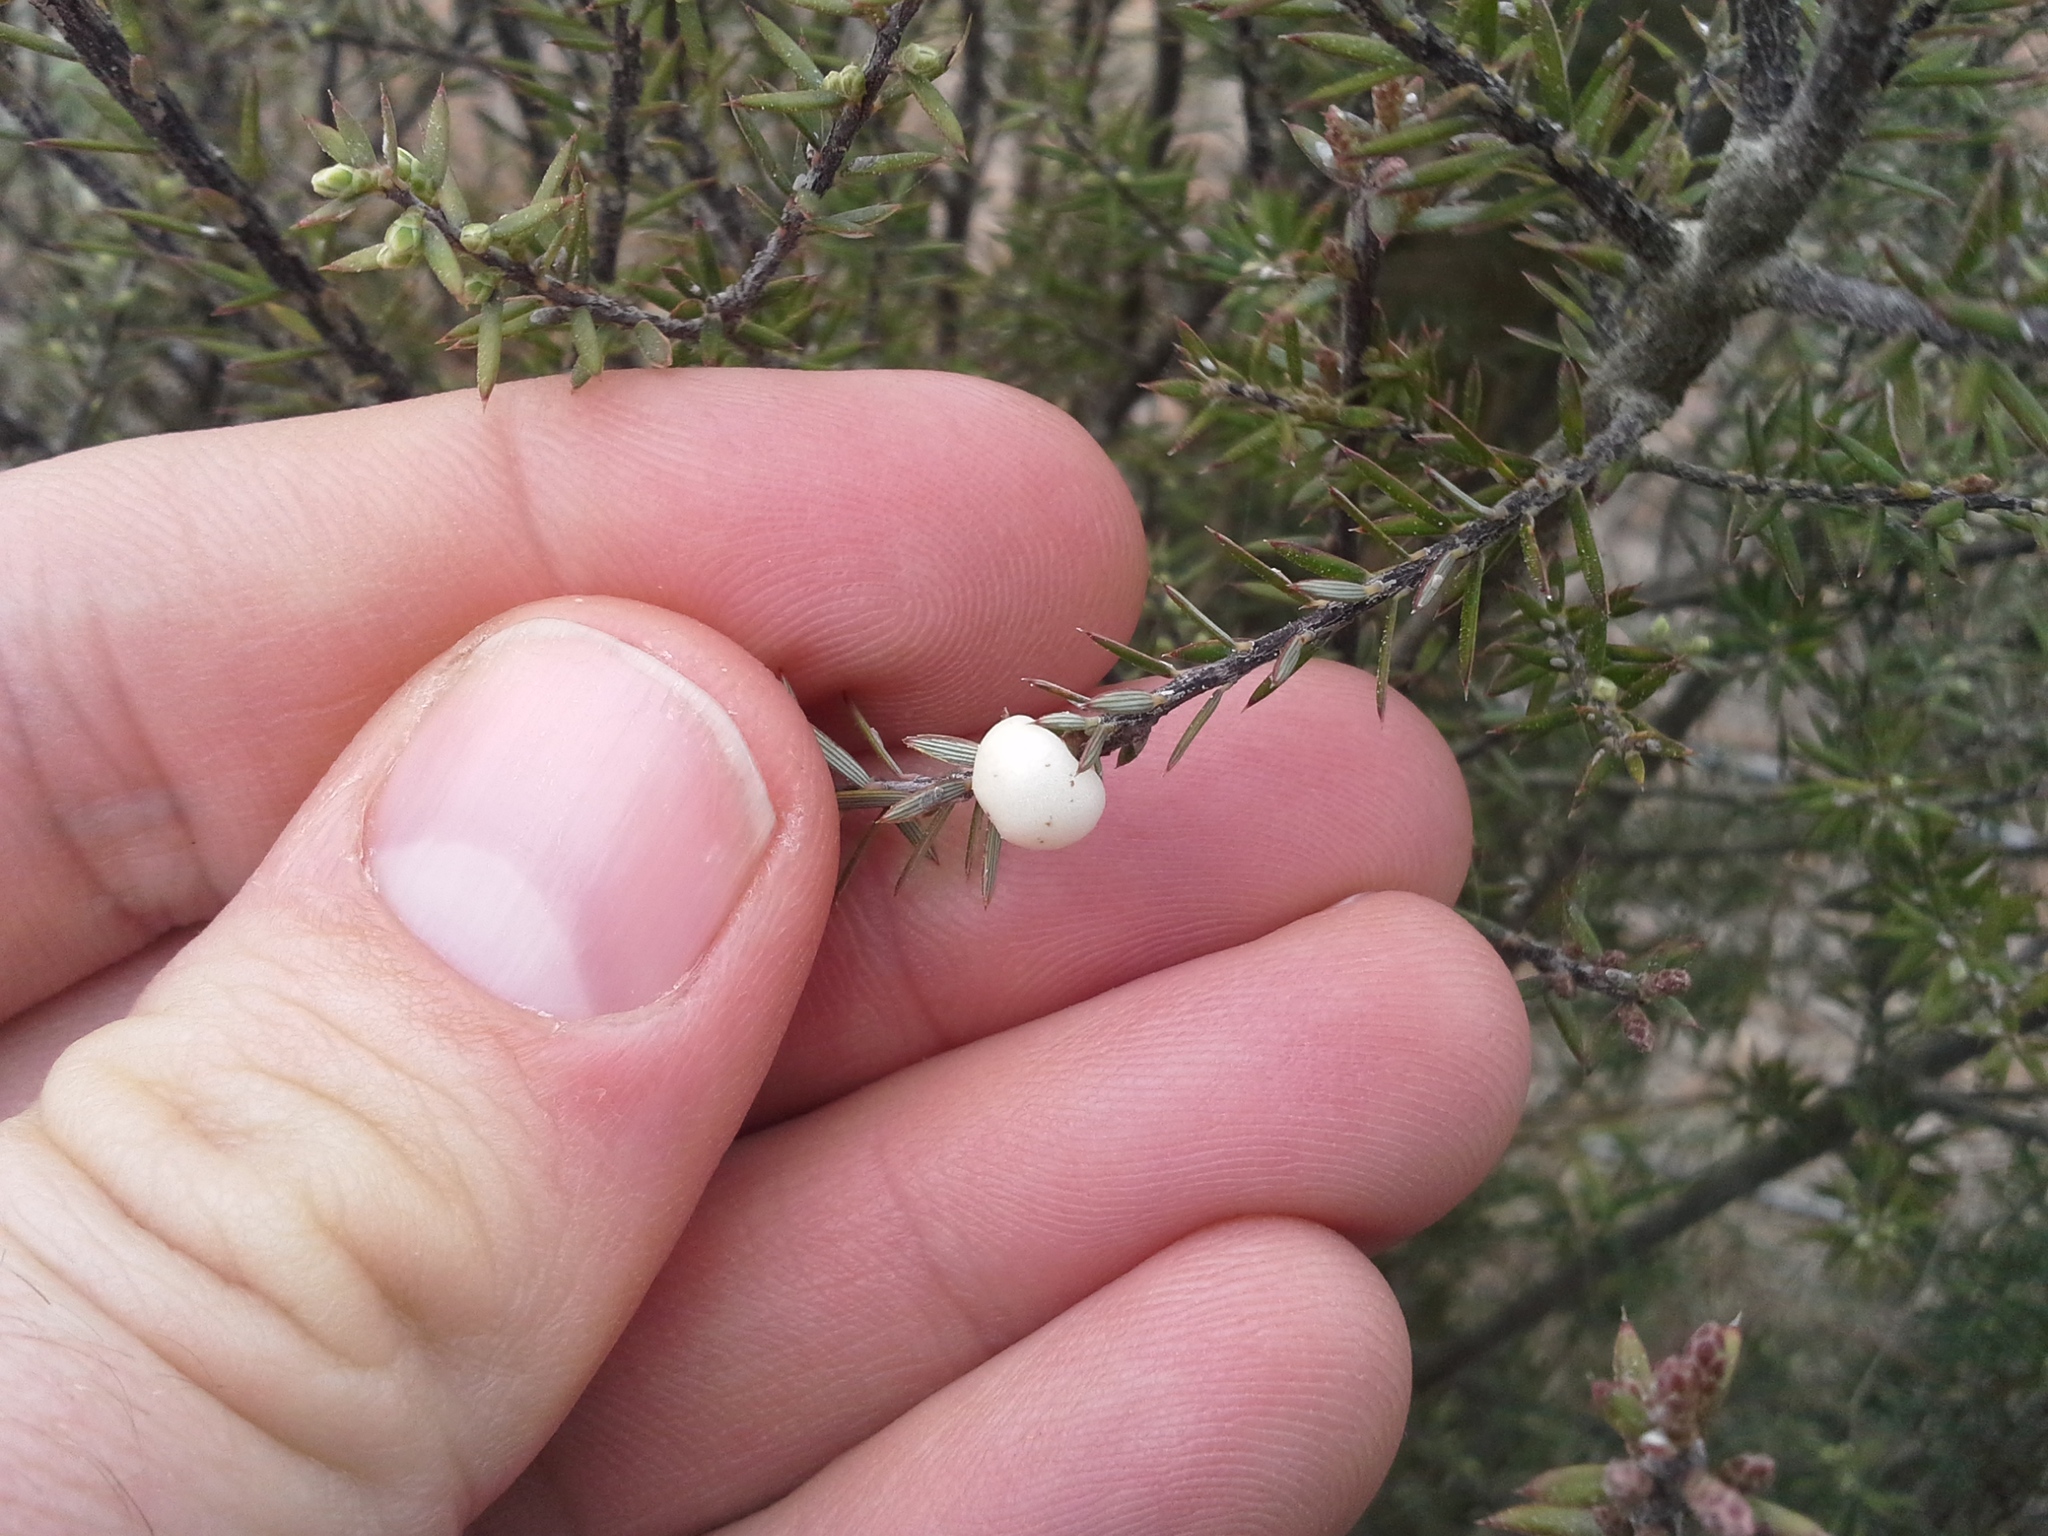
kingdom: Plantae
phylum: Tracheophyta
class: Magnoliopsida
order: Ericales
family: Ericaceae
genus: Leptecophylla
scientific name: Leptecophylla juniperina
